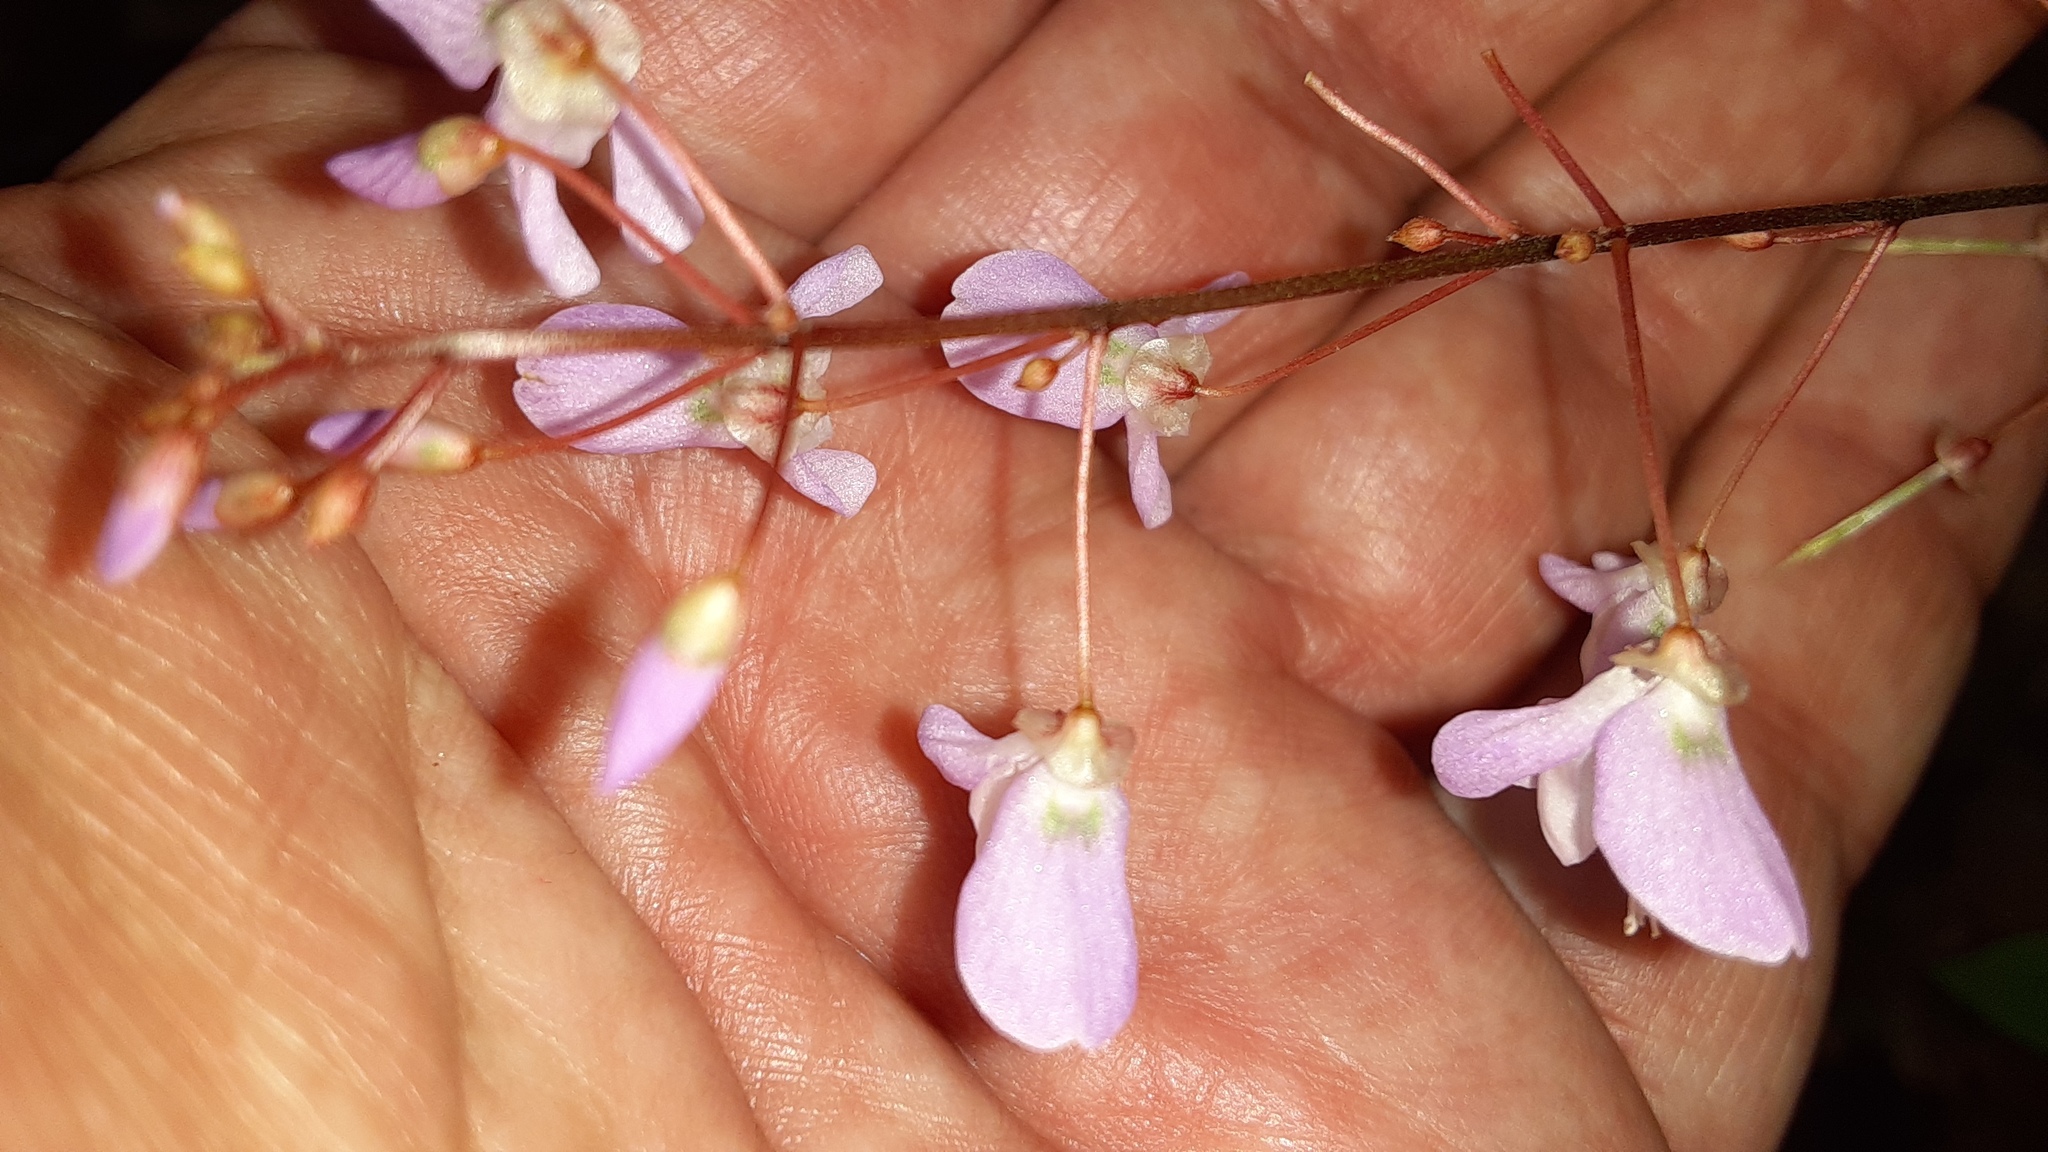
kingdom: Plantae
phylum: Tracheophyta
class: Magnoliopsida
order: Fabales
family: Fabaceae
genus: Hylodesmum
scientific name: Hylodesmum nudiflorum
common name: Bare-stemmed tick-trefoil
